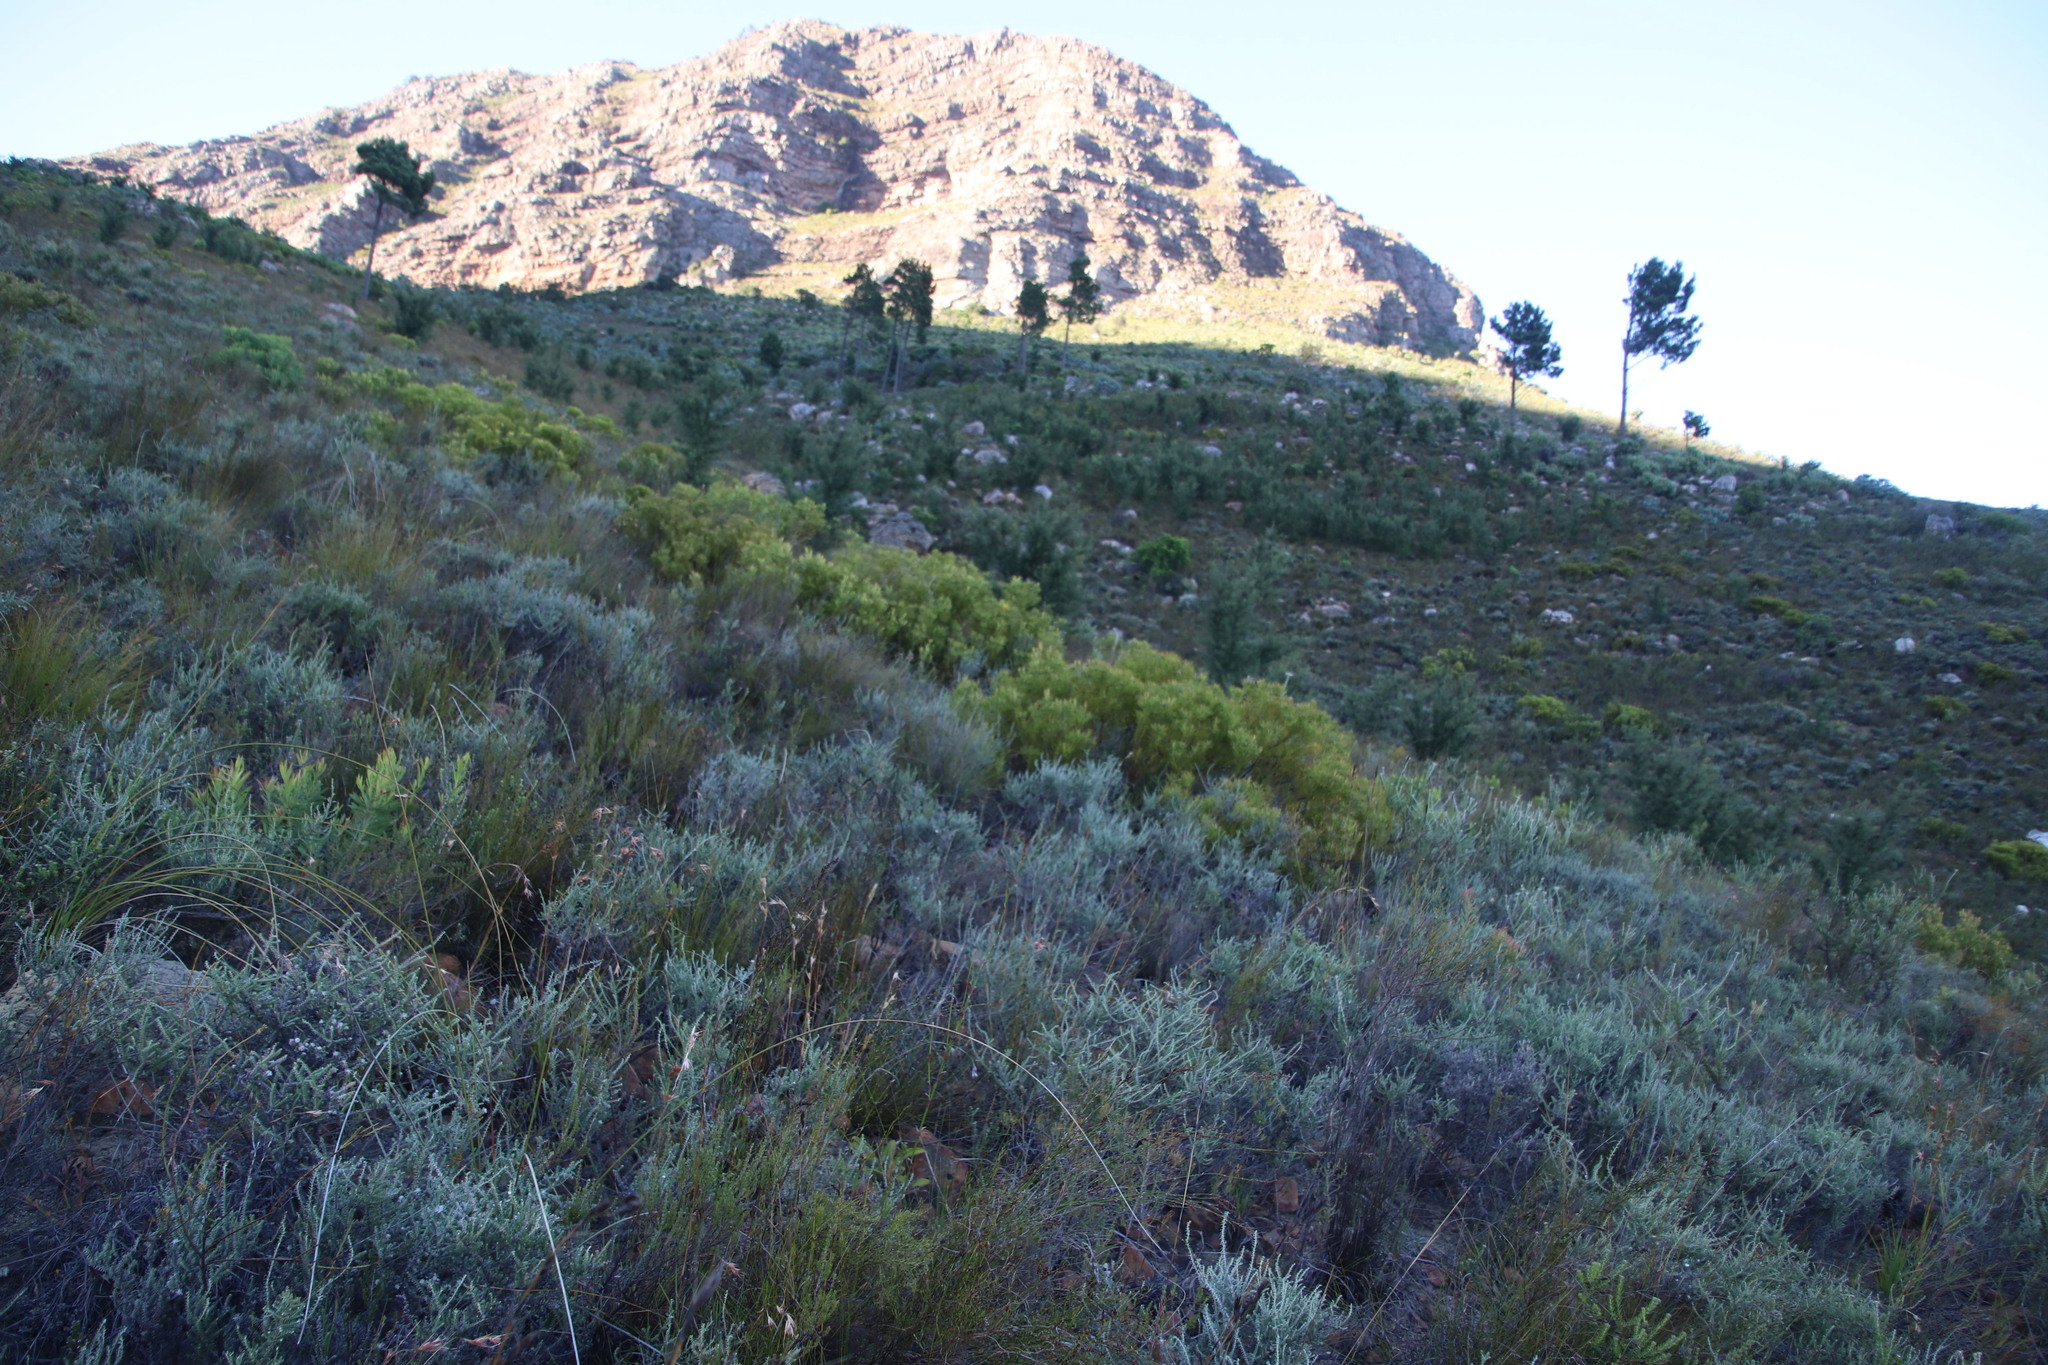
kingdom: Plantae
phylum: Tracheophyta
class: Magnoliopsida
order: Proteales
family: Proteaceae
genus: Leucadendron
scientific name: Leucadendron salignum
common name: Common sunshine conebush
